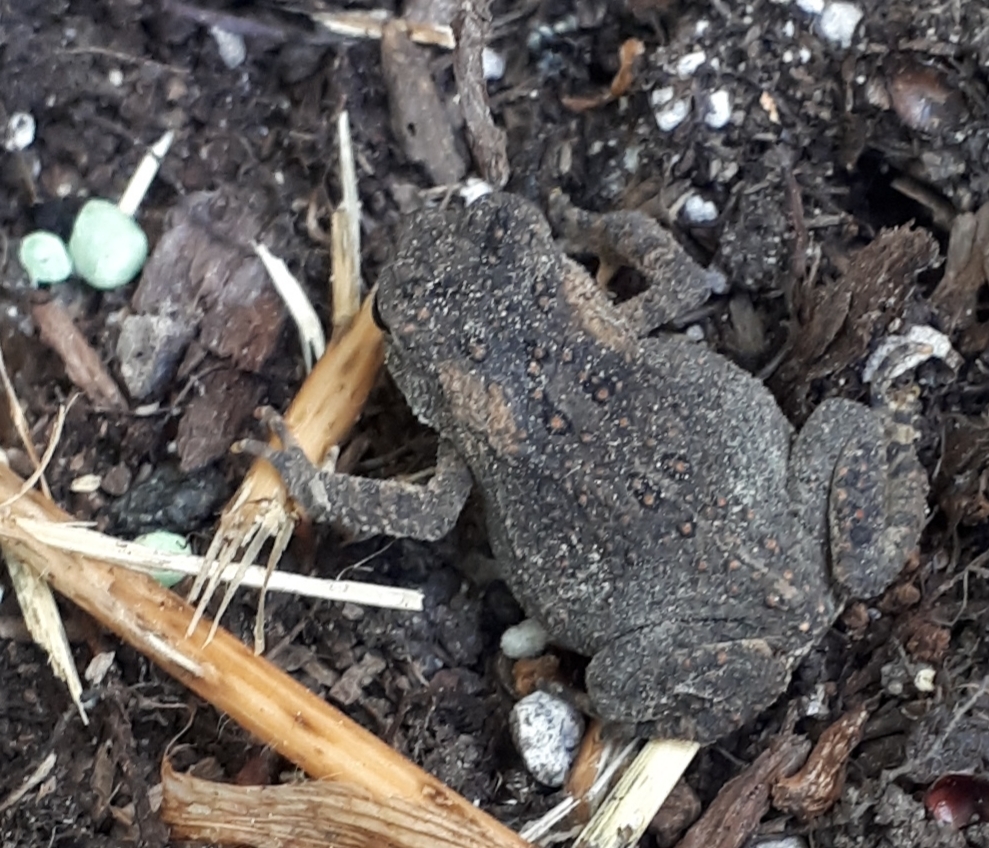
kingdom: Animalia
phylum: Chordata
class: Amphibia
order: Anura
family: Bufonidae
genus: Anaxyrus
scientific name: Anaxyrus americanus
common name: American toad
